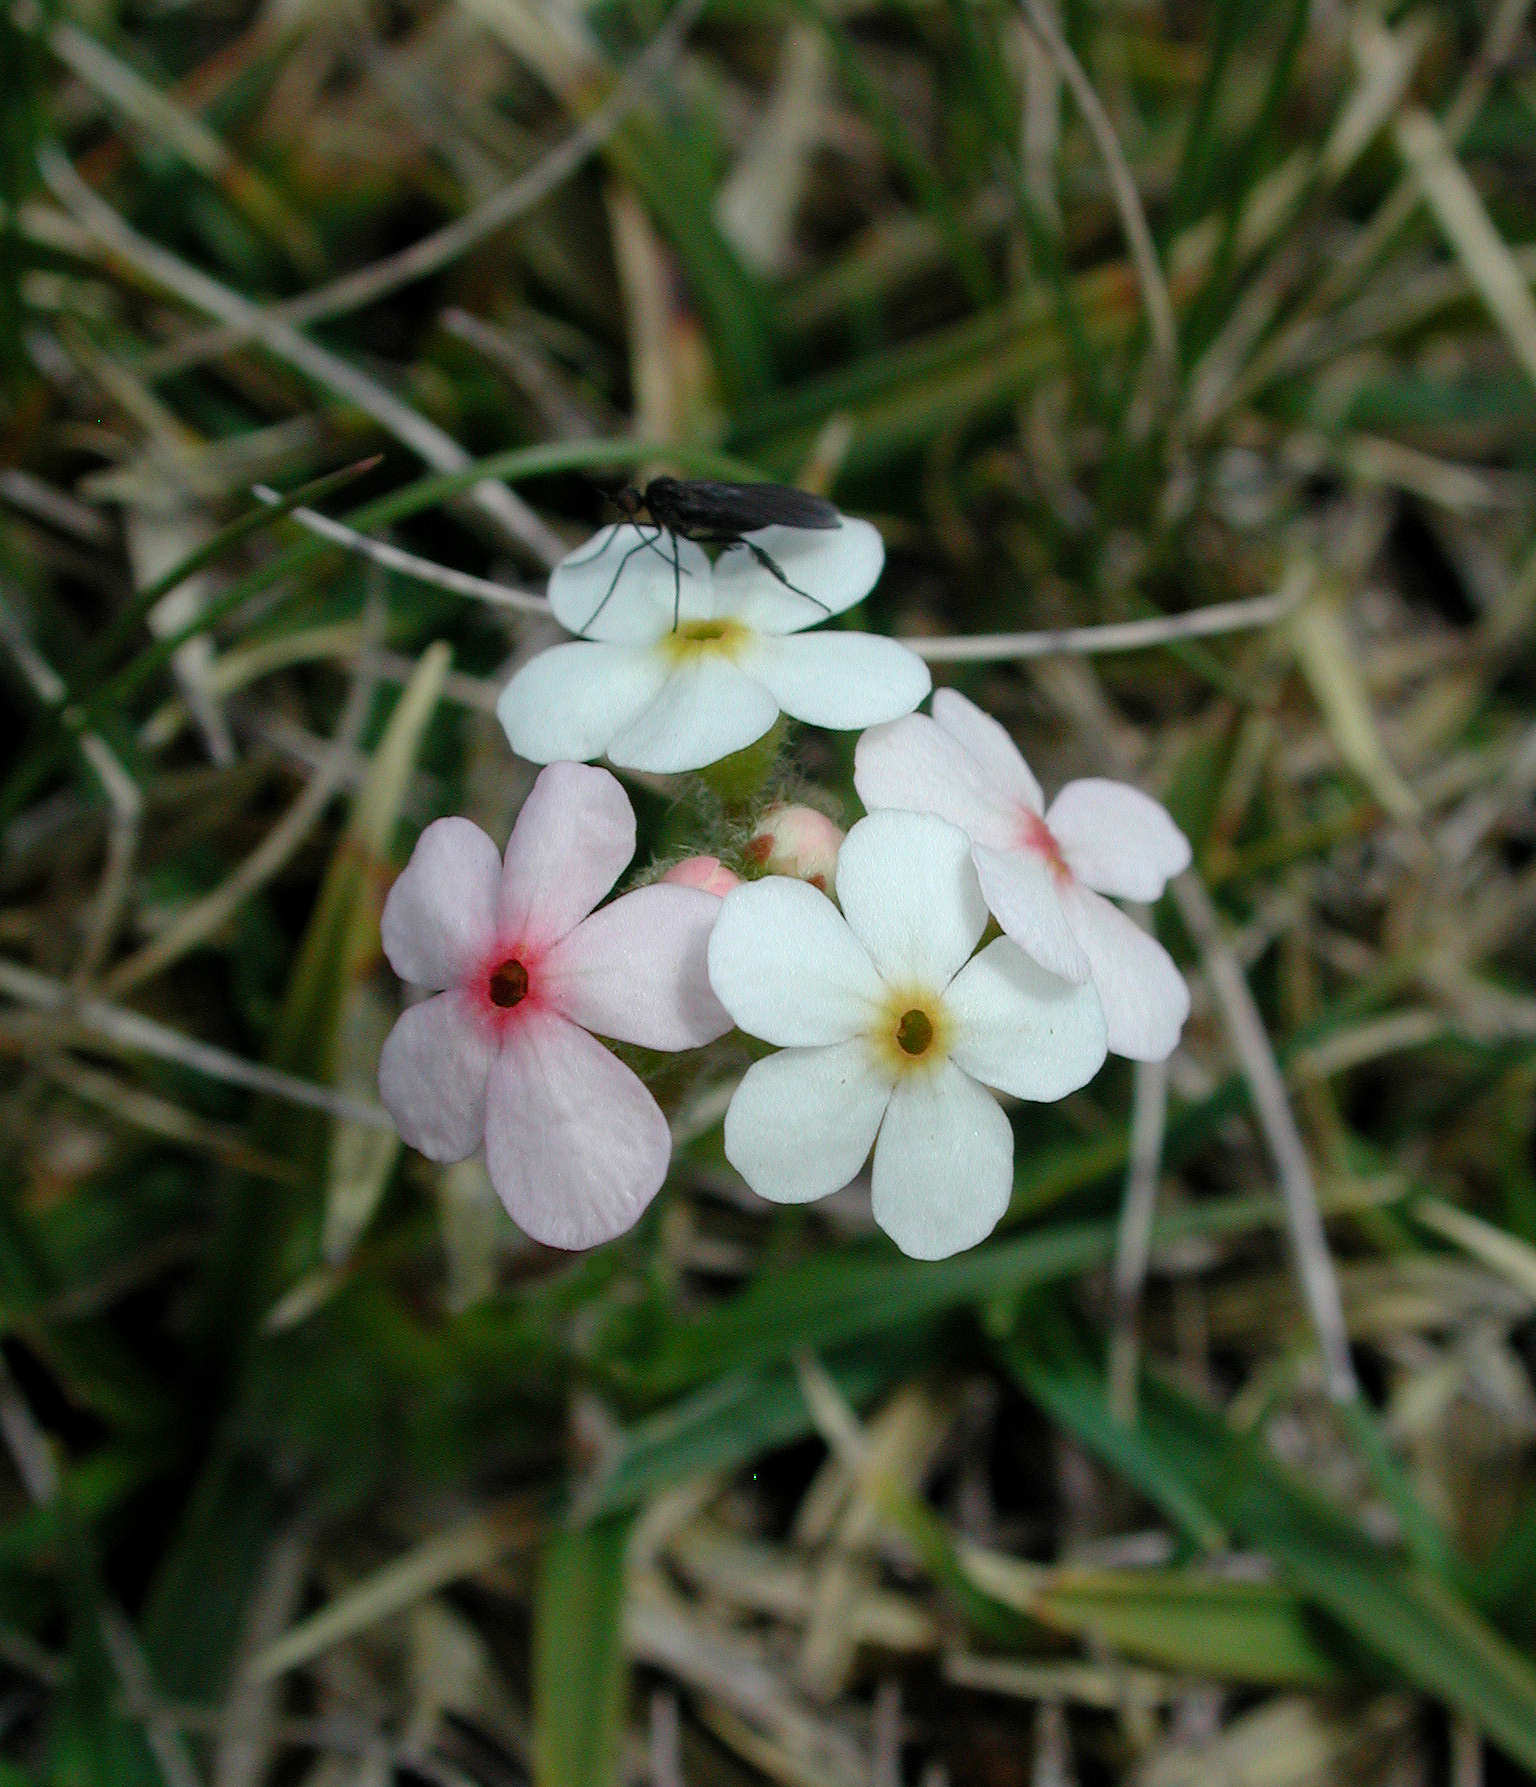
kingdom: Plantae
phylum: Tracheophyta
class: Magnoliopsida
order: Ericales
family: Primulaceae
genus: Androsace
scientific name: Androsace chamaejasme
